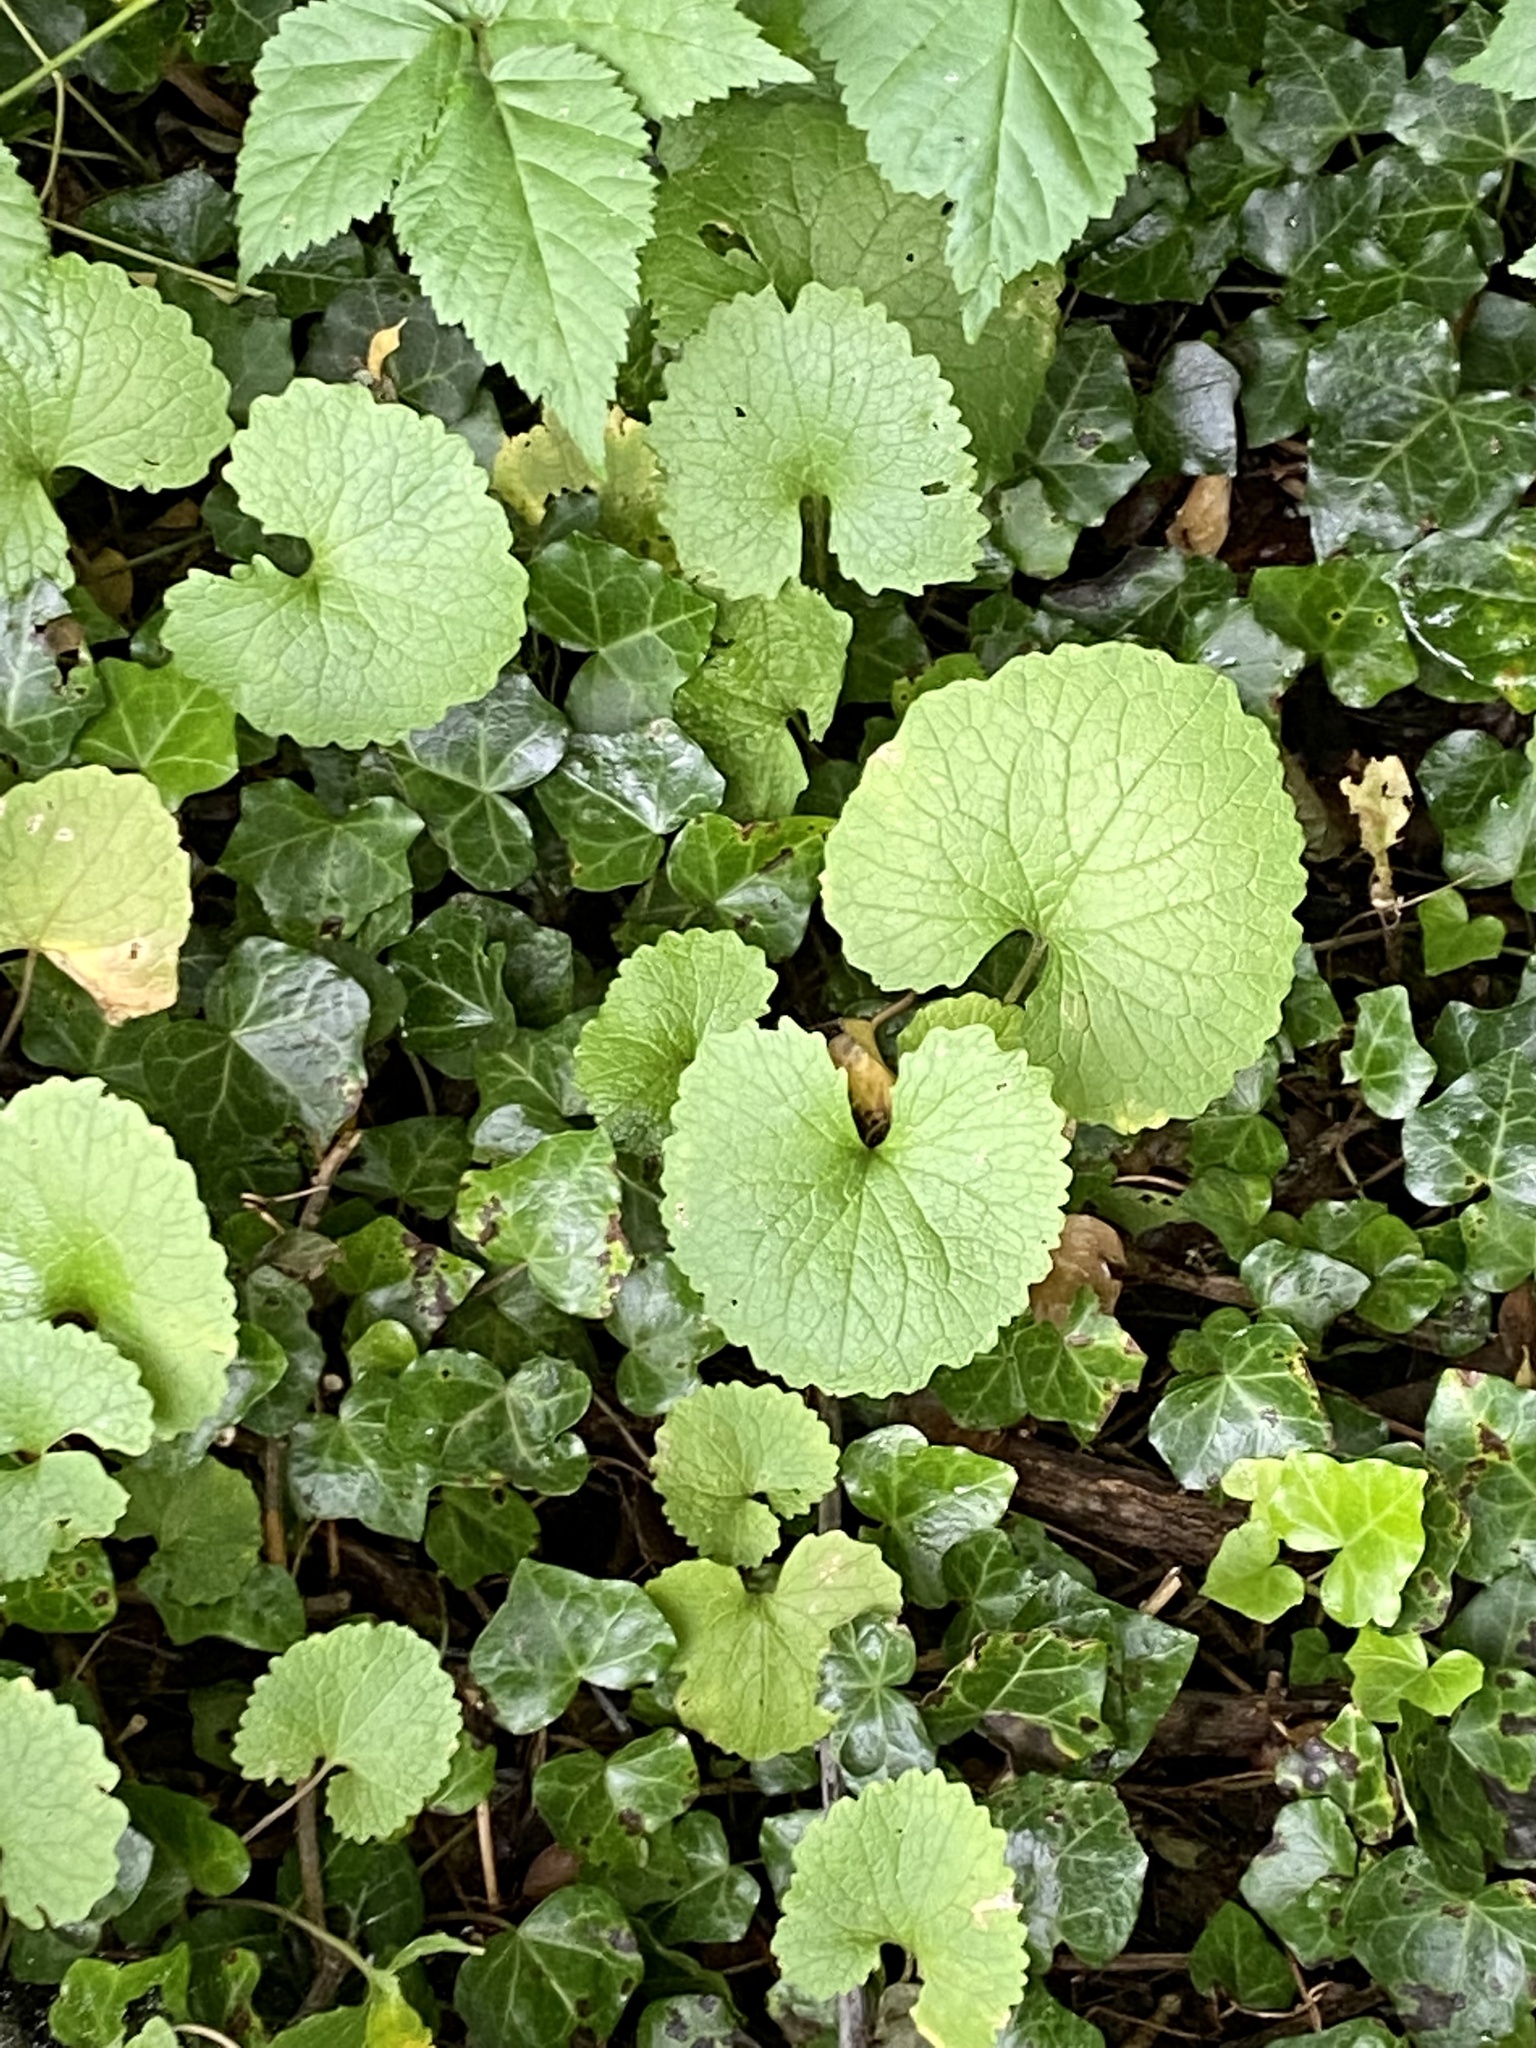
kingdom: Plantae
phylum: Tracheophyta
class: Magnoliopsida
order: Brassicales
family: Brassicaceae
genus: Alliaria
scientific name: Alliaria petiolata
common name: Garlic mustard
